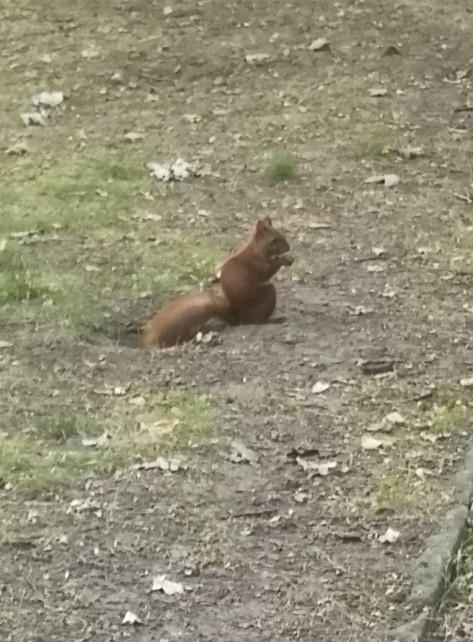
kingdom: Animalia
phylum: Chordata
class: Mammalia
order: Rodentia
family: Sciuridae
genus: Sciurus
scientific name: Sciurus vulgaris
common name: Eurasian red squirrel
